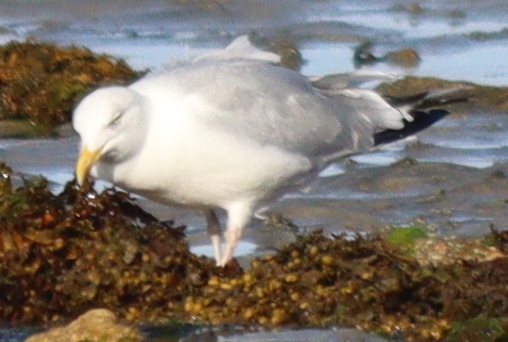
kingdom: Animalia
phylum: Chordata
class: Aves
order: Charadriiformes
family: Laridae
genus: Larus
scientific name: Larus argentatus
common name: Herring gull
